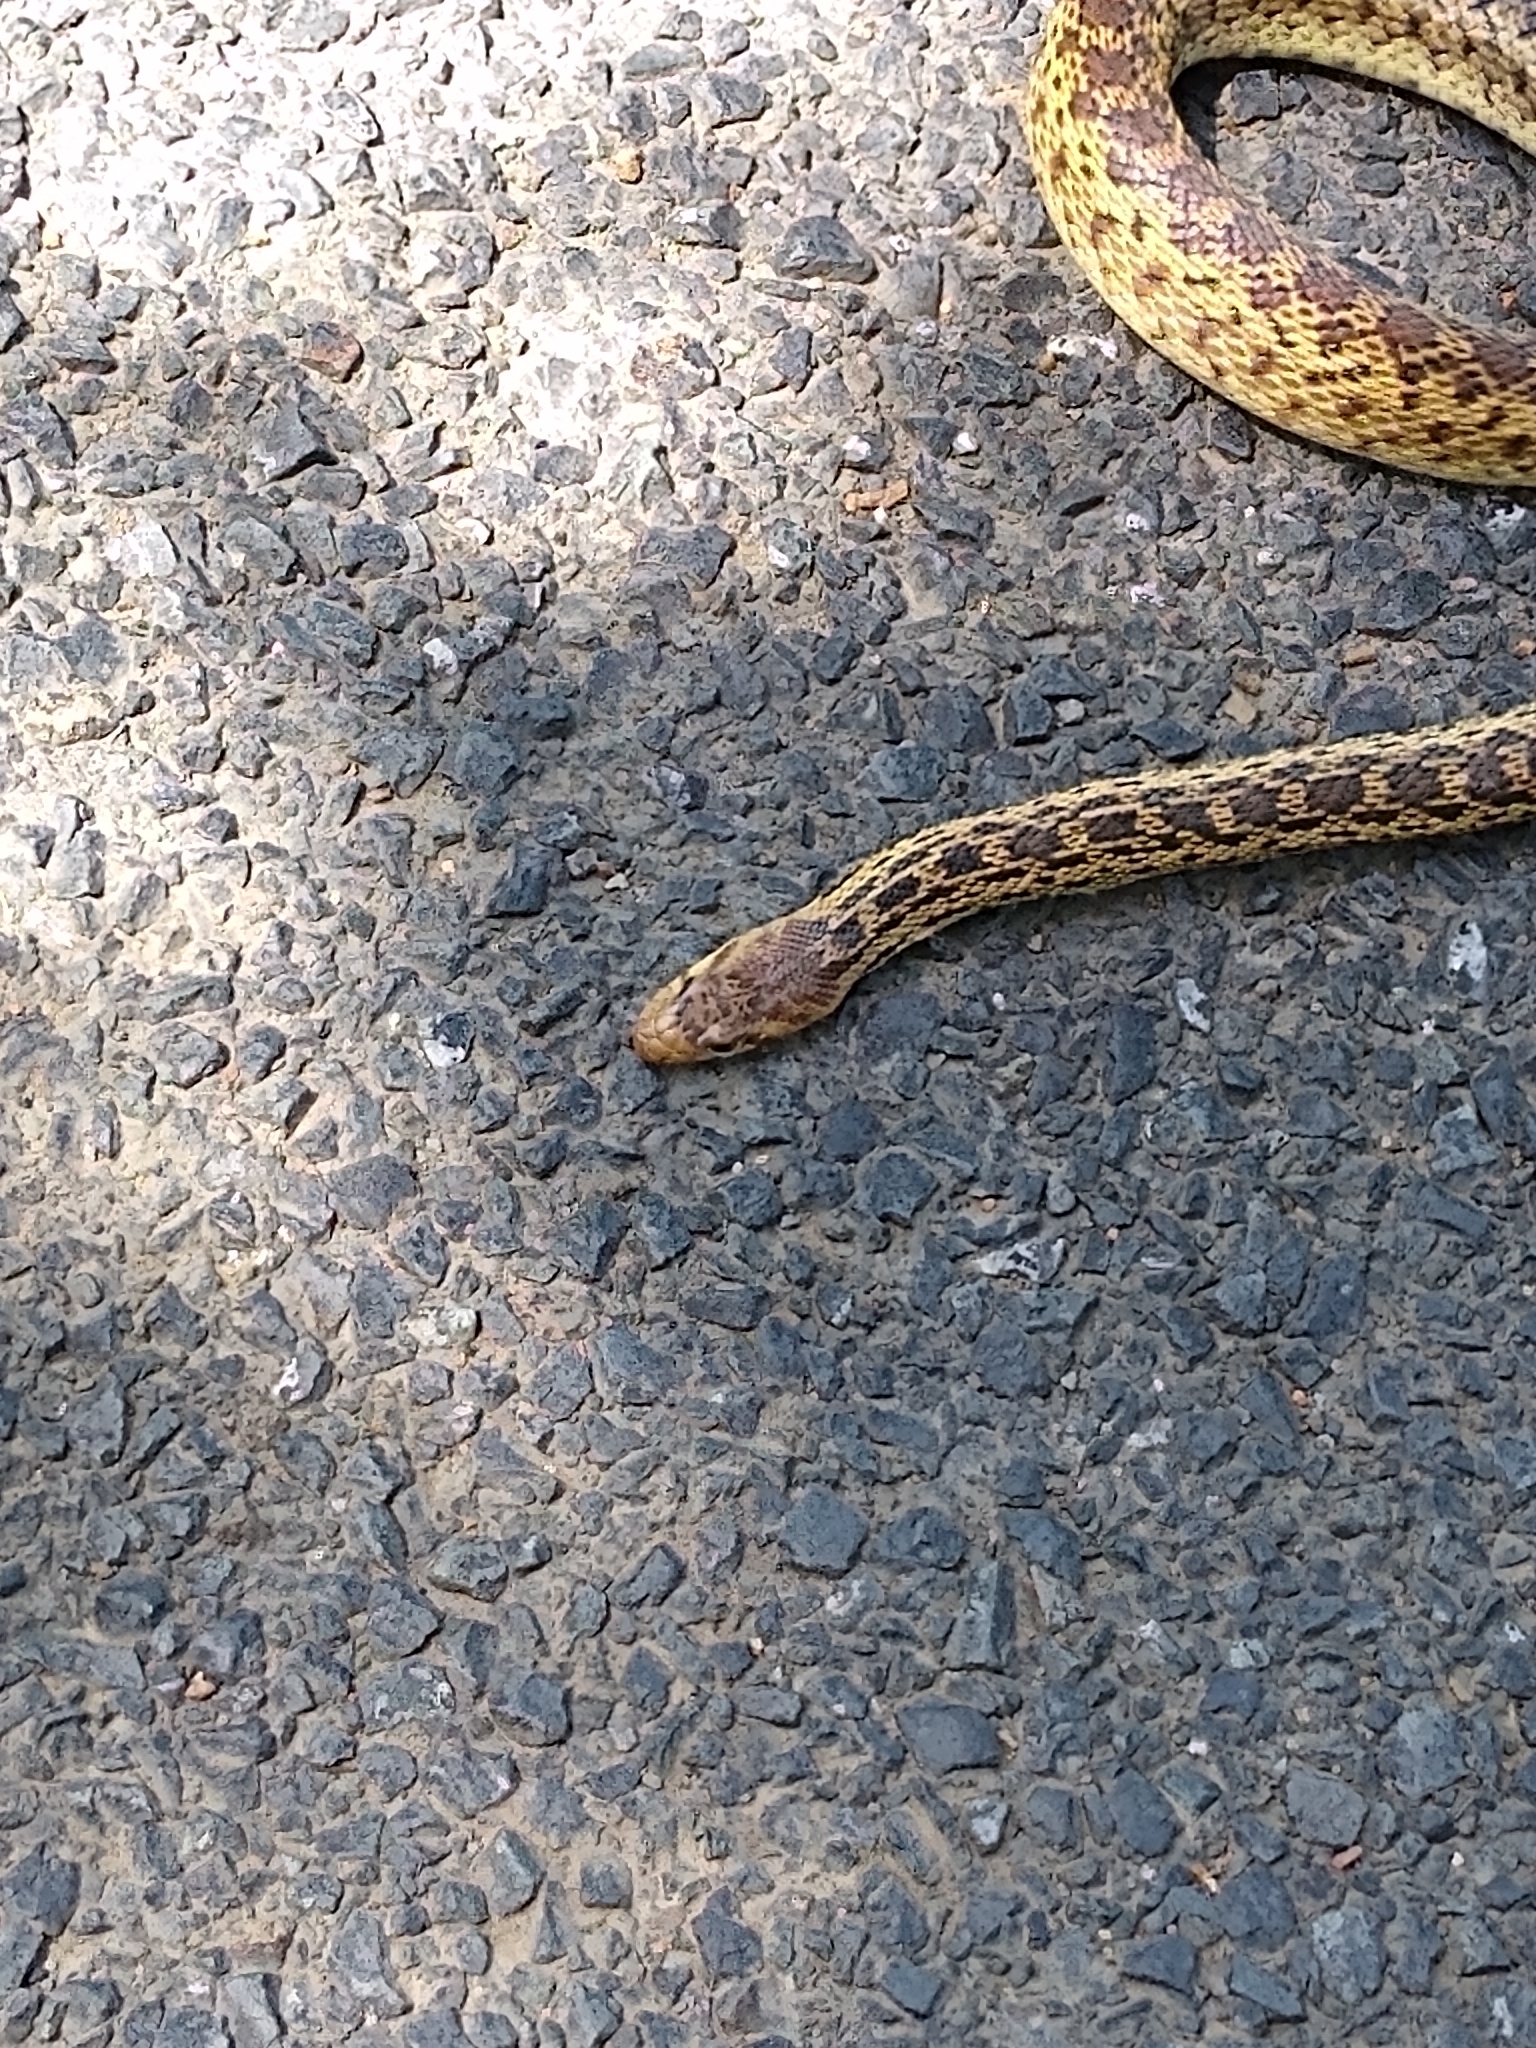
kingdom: Animalia
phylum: Chordata
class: Squamata
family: Colubridae
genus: Pituophis
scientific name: Pituophis catenifer
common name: Gopher snake
